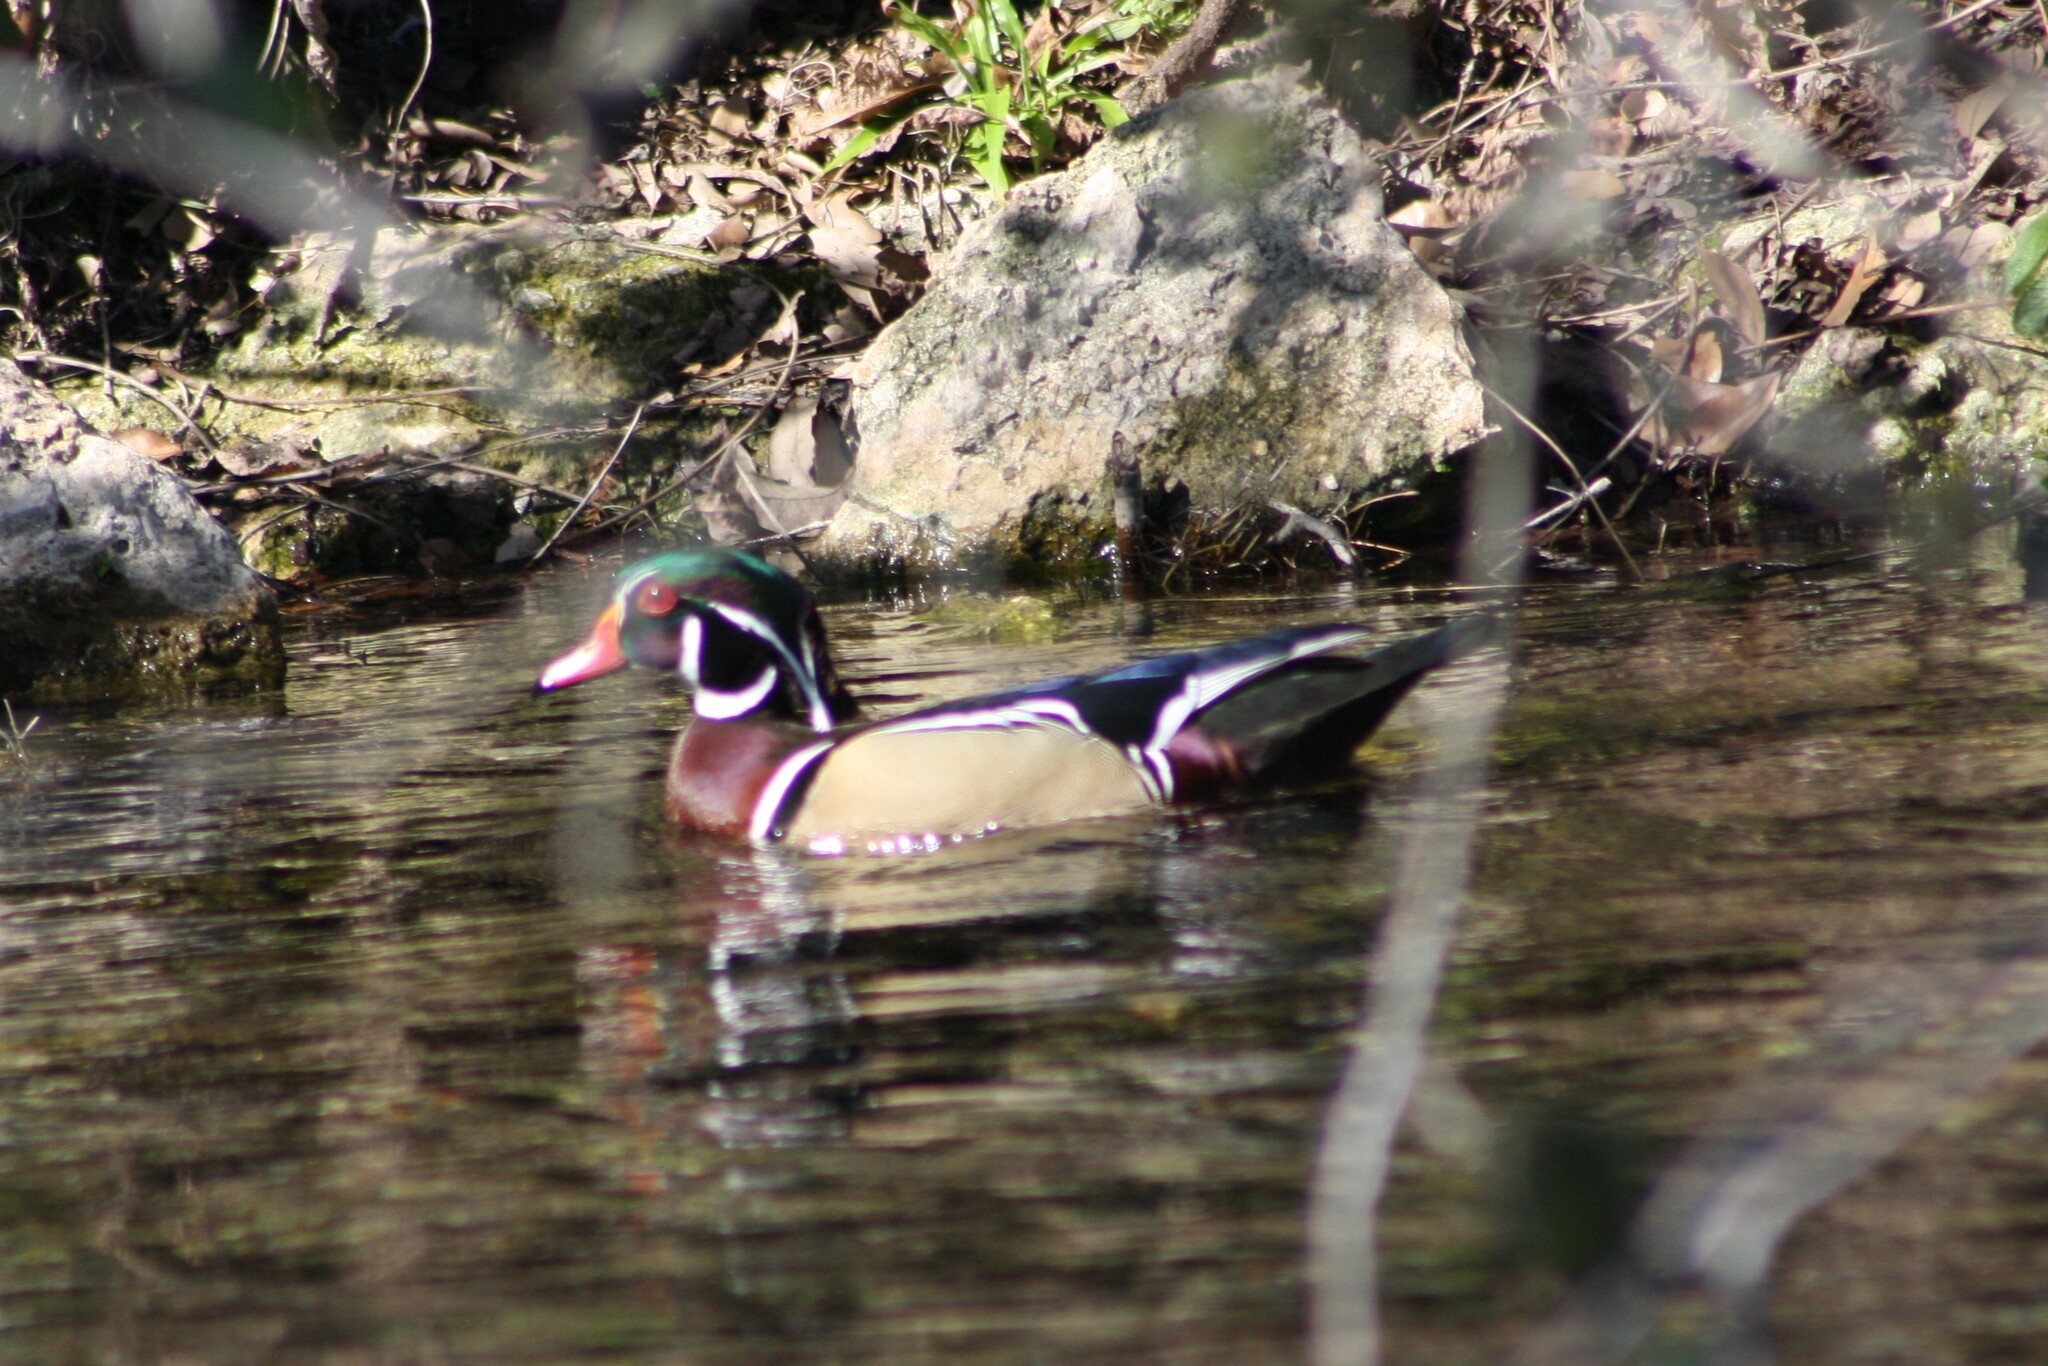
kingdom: Animalia
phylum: Chordata
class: Aves
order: Anseriformes
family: Anatidae
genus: Aix
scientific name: Aix sponsa
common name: Wood duck
